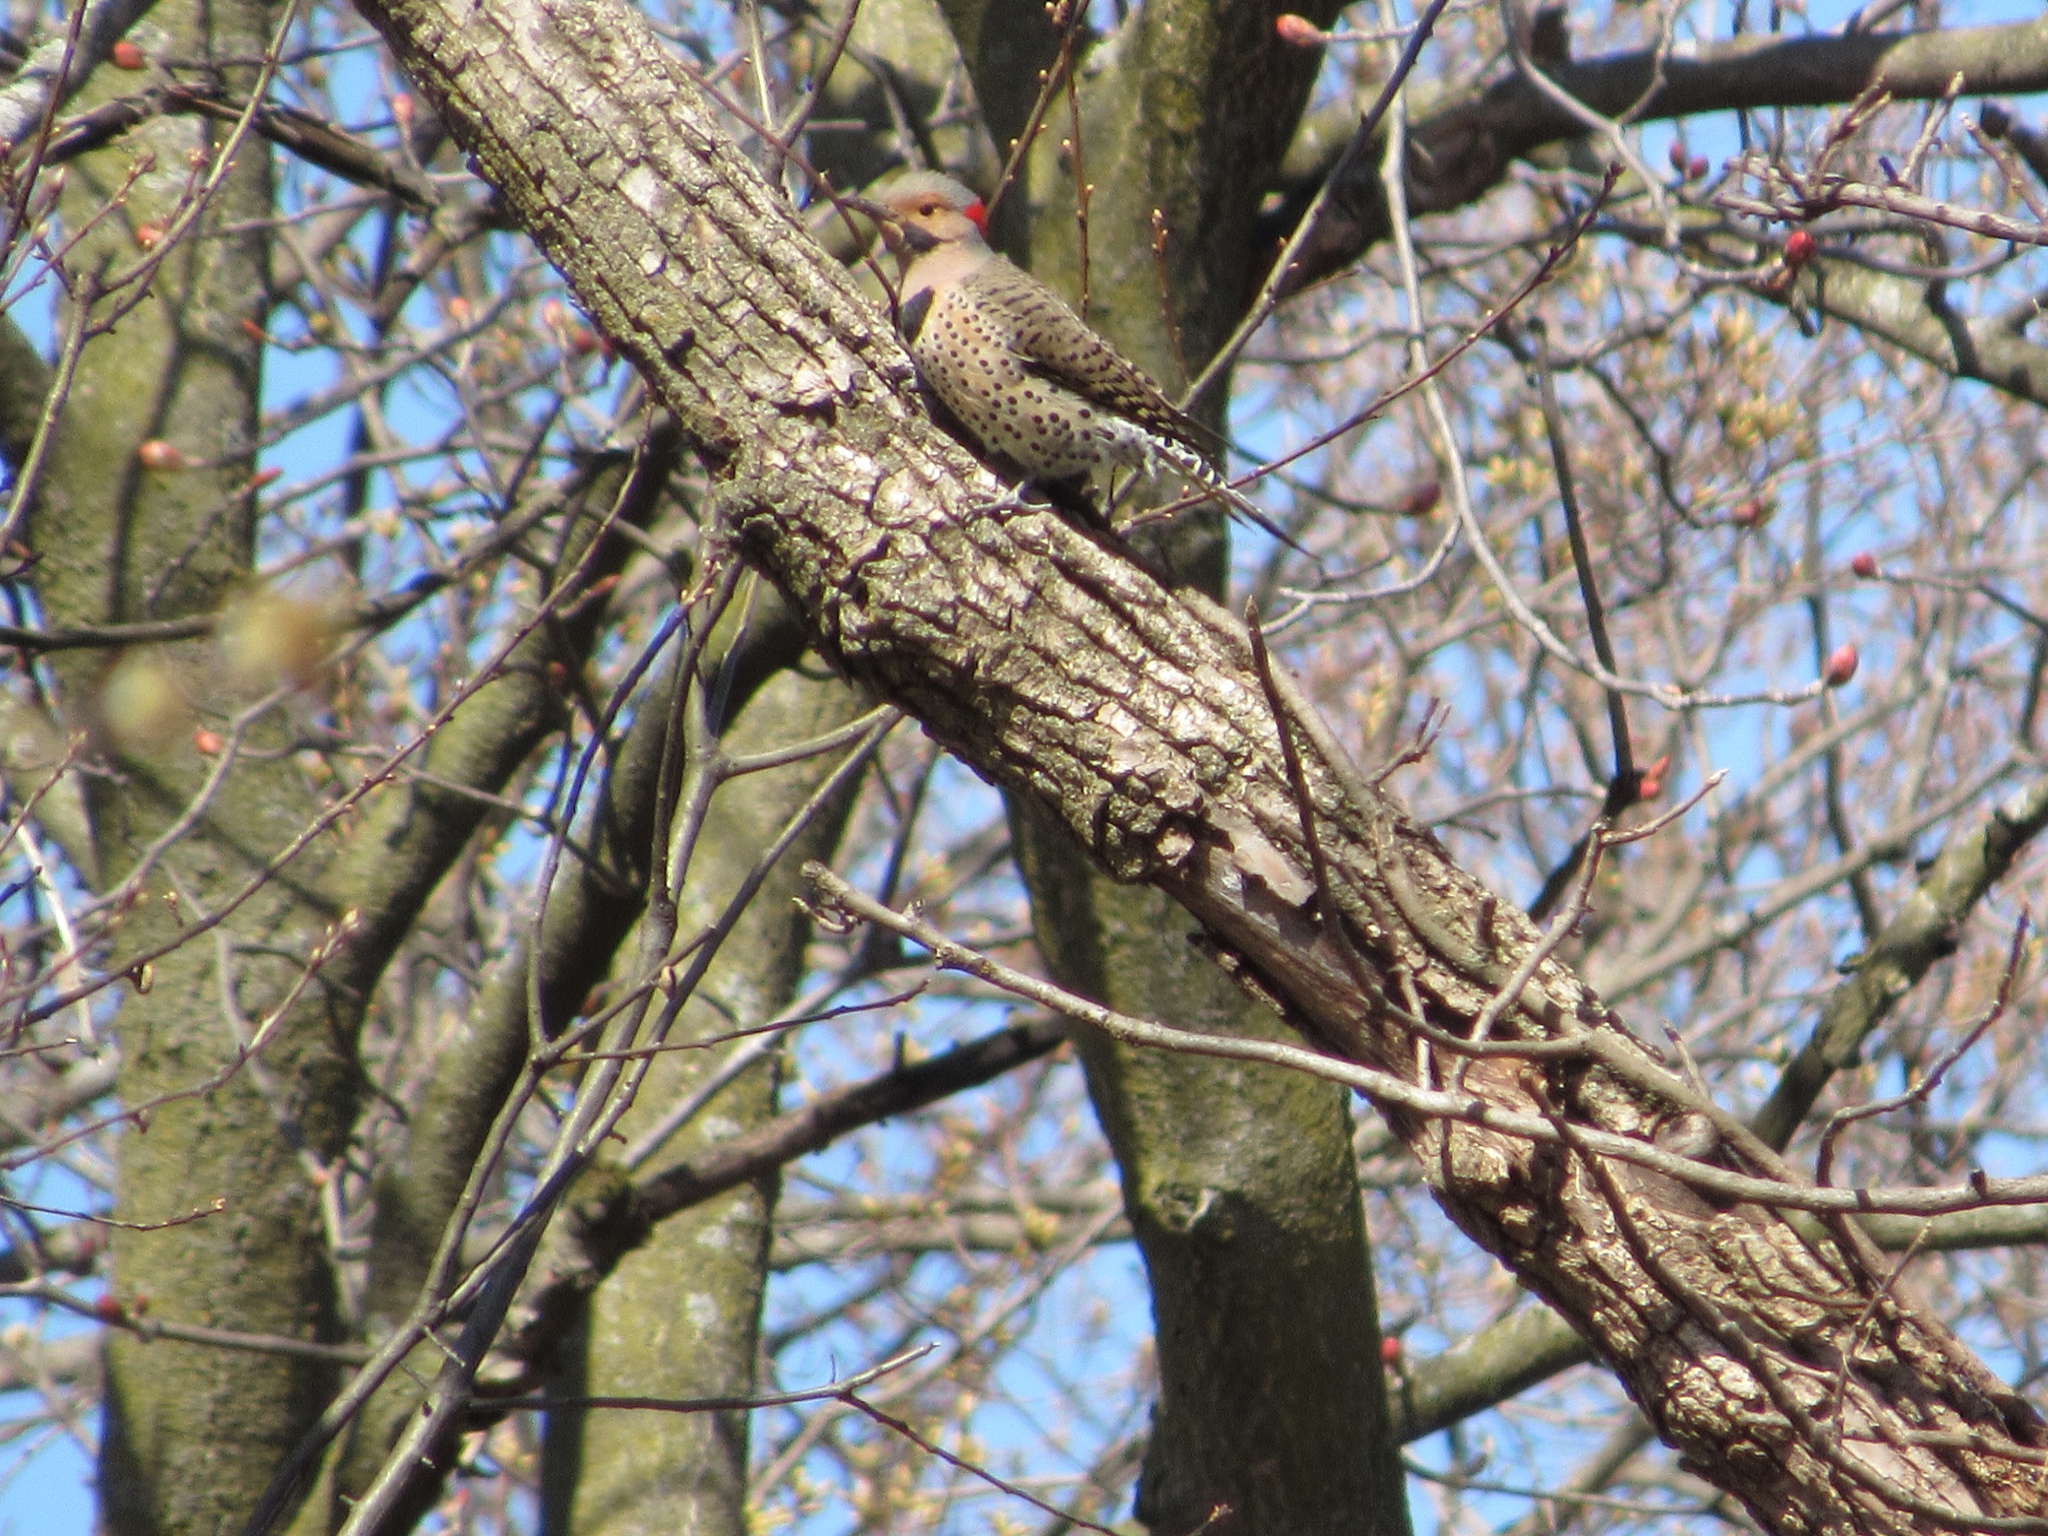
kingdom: Animalia
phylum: Chordata
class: Aves
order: Piciformes
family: Picidae
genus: Colaptes
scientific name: Colaptes auratus
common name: Northern flicker
